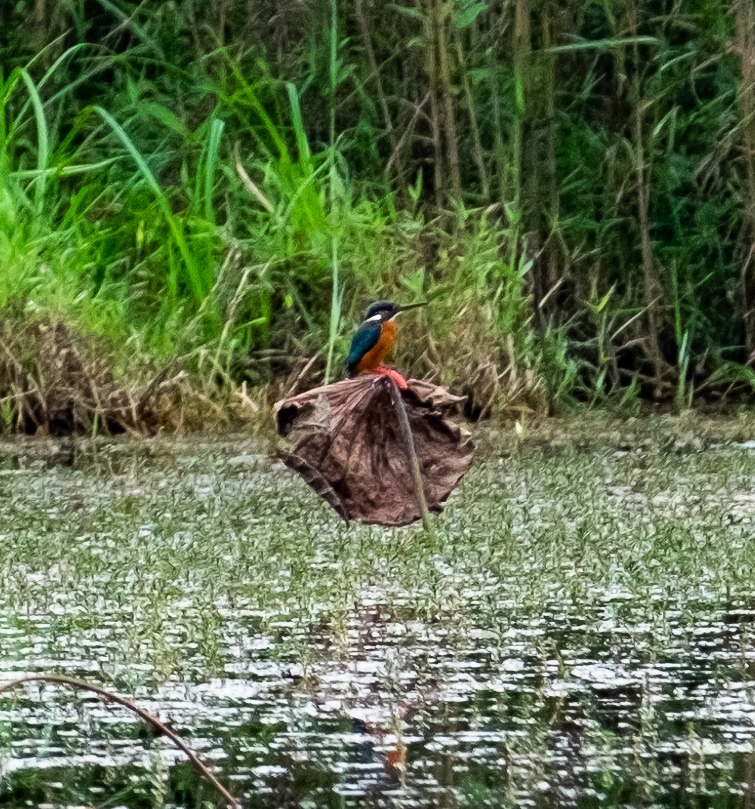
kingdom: Animalia
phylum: Chordata
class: Aves
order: Coraciiformes
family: Alcedinidae
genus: Alcedo
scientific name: Alcedo atthis
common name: Common kingfisher
